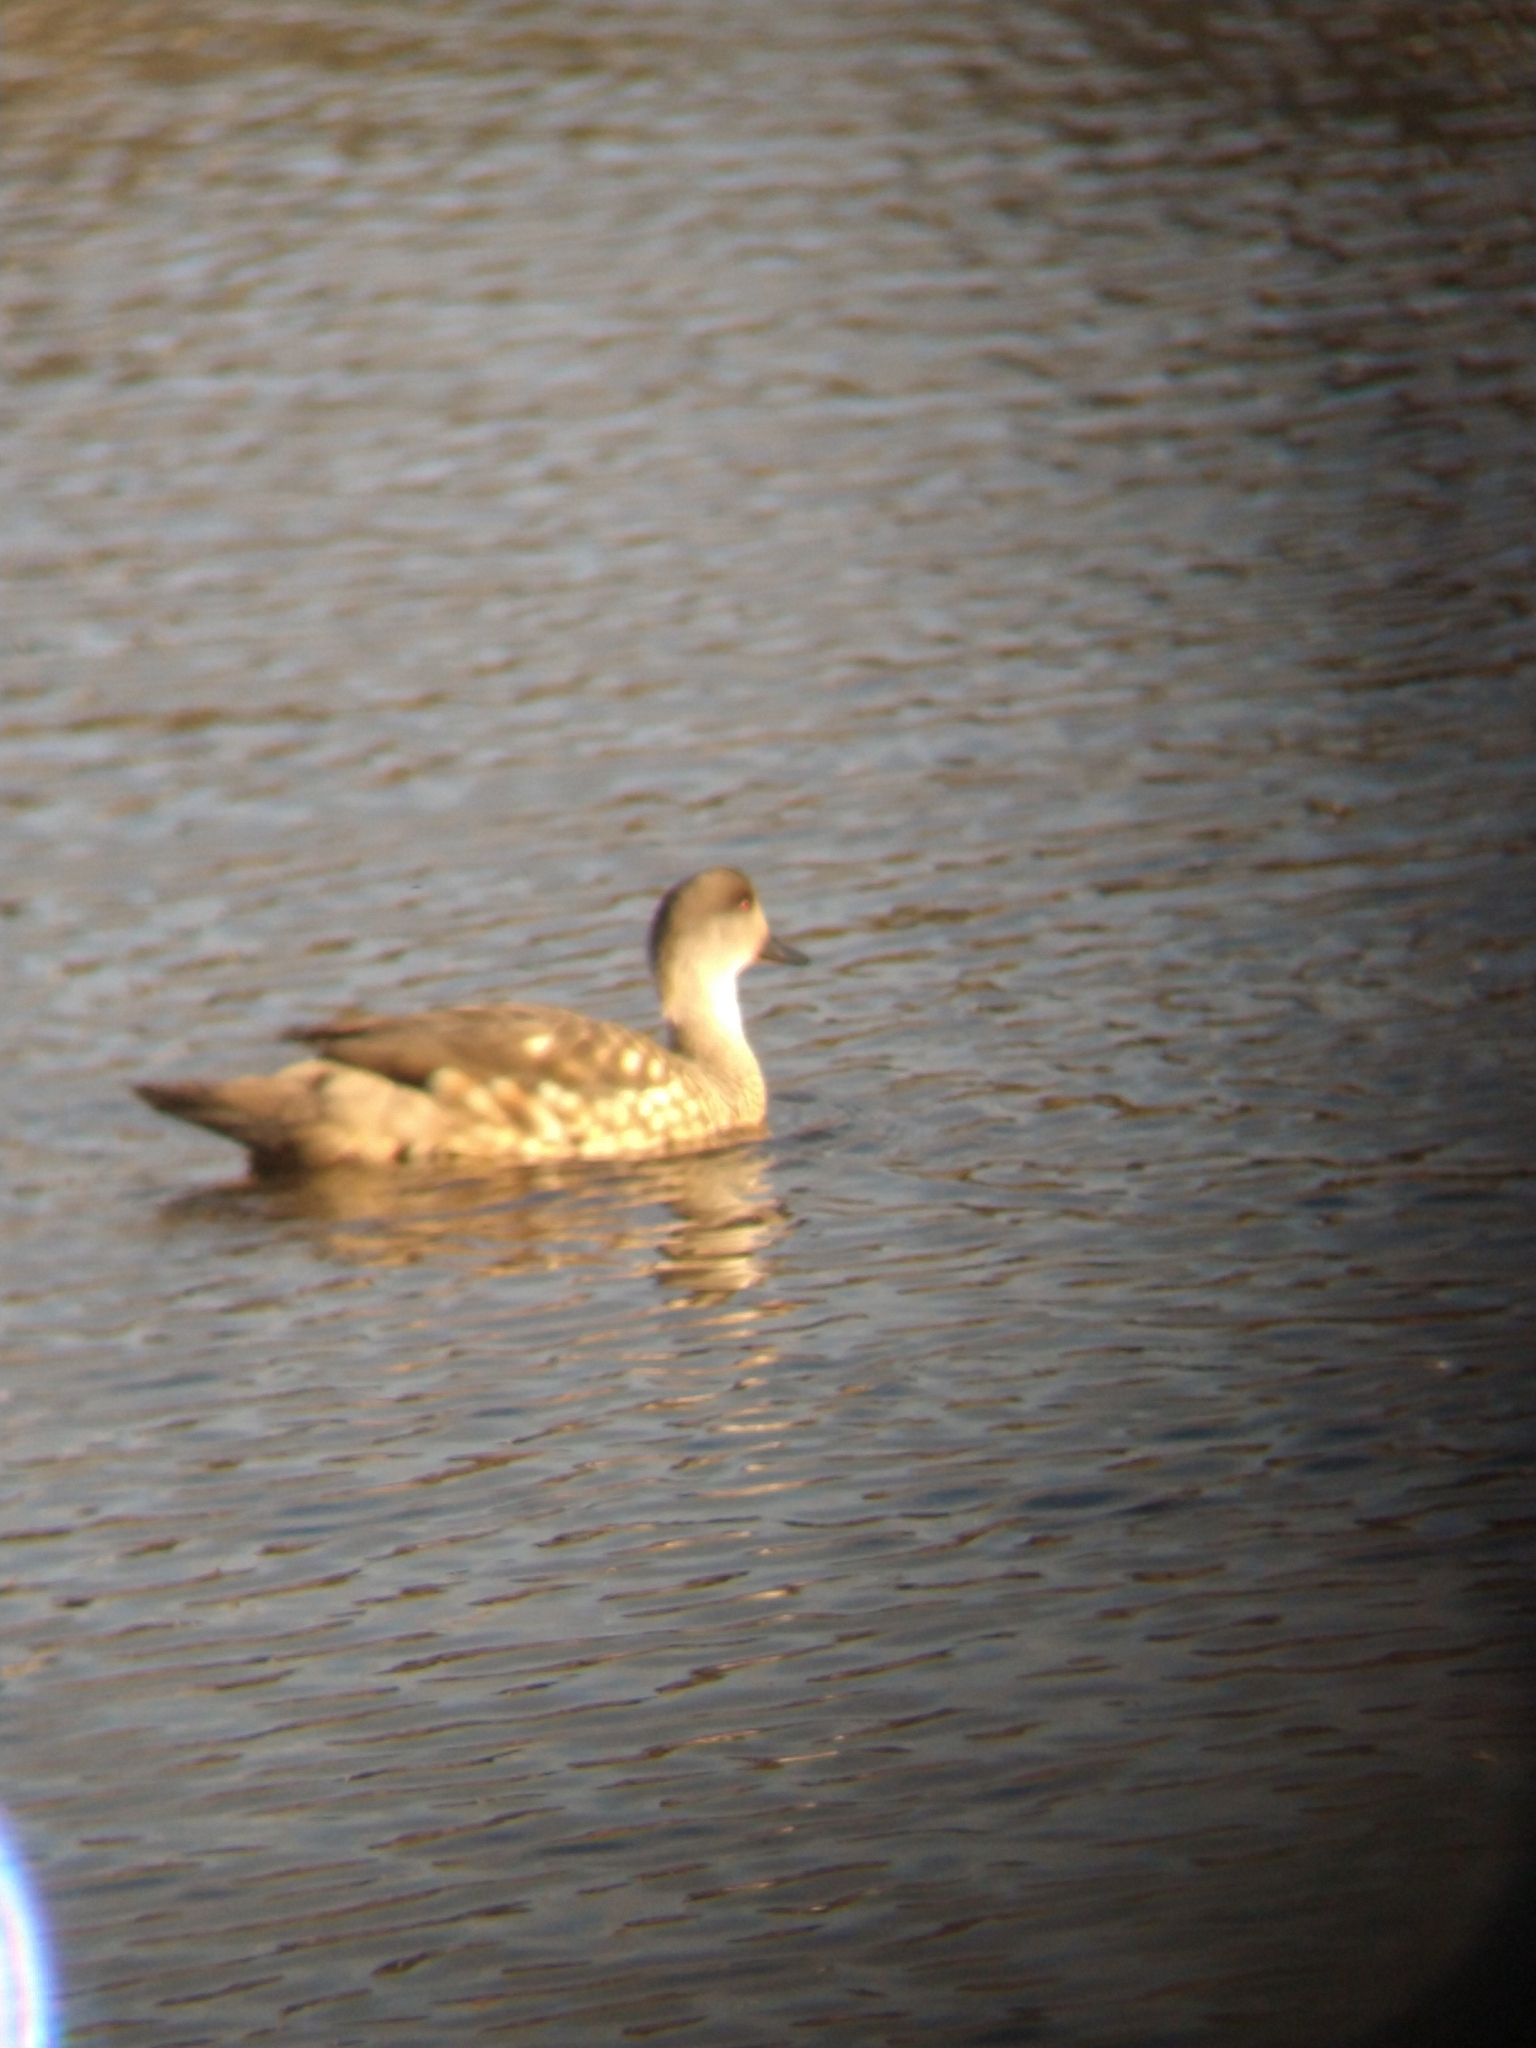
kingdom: Animalia
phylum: Chordata
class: Aves
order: Anseriformes
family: Anatidae
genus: Lophonetta
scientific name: Lophonetta specularioides
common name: Crested duck
